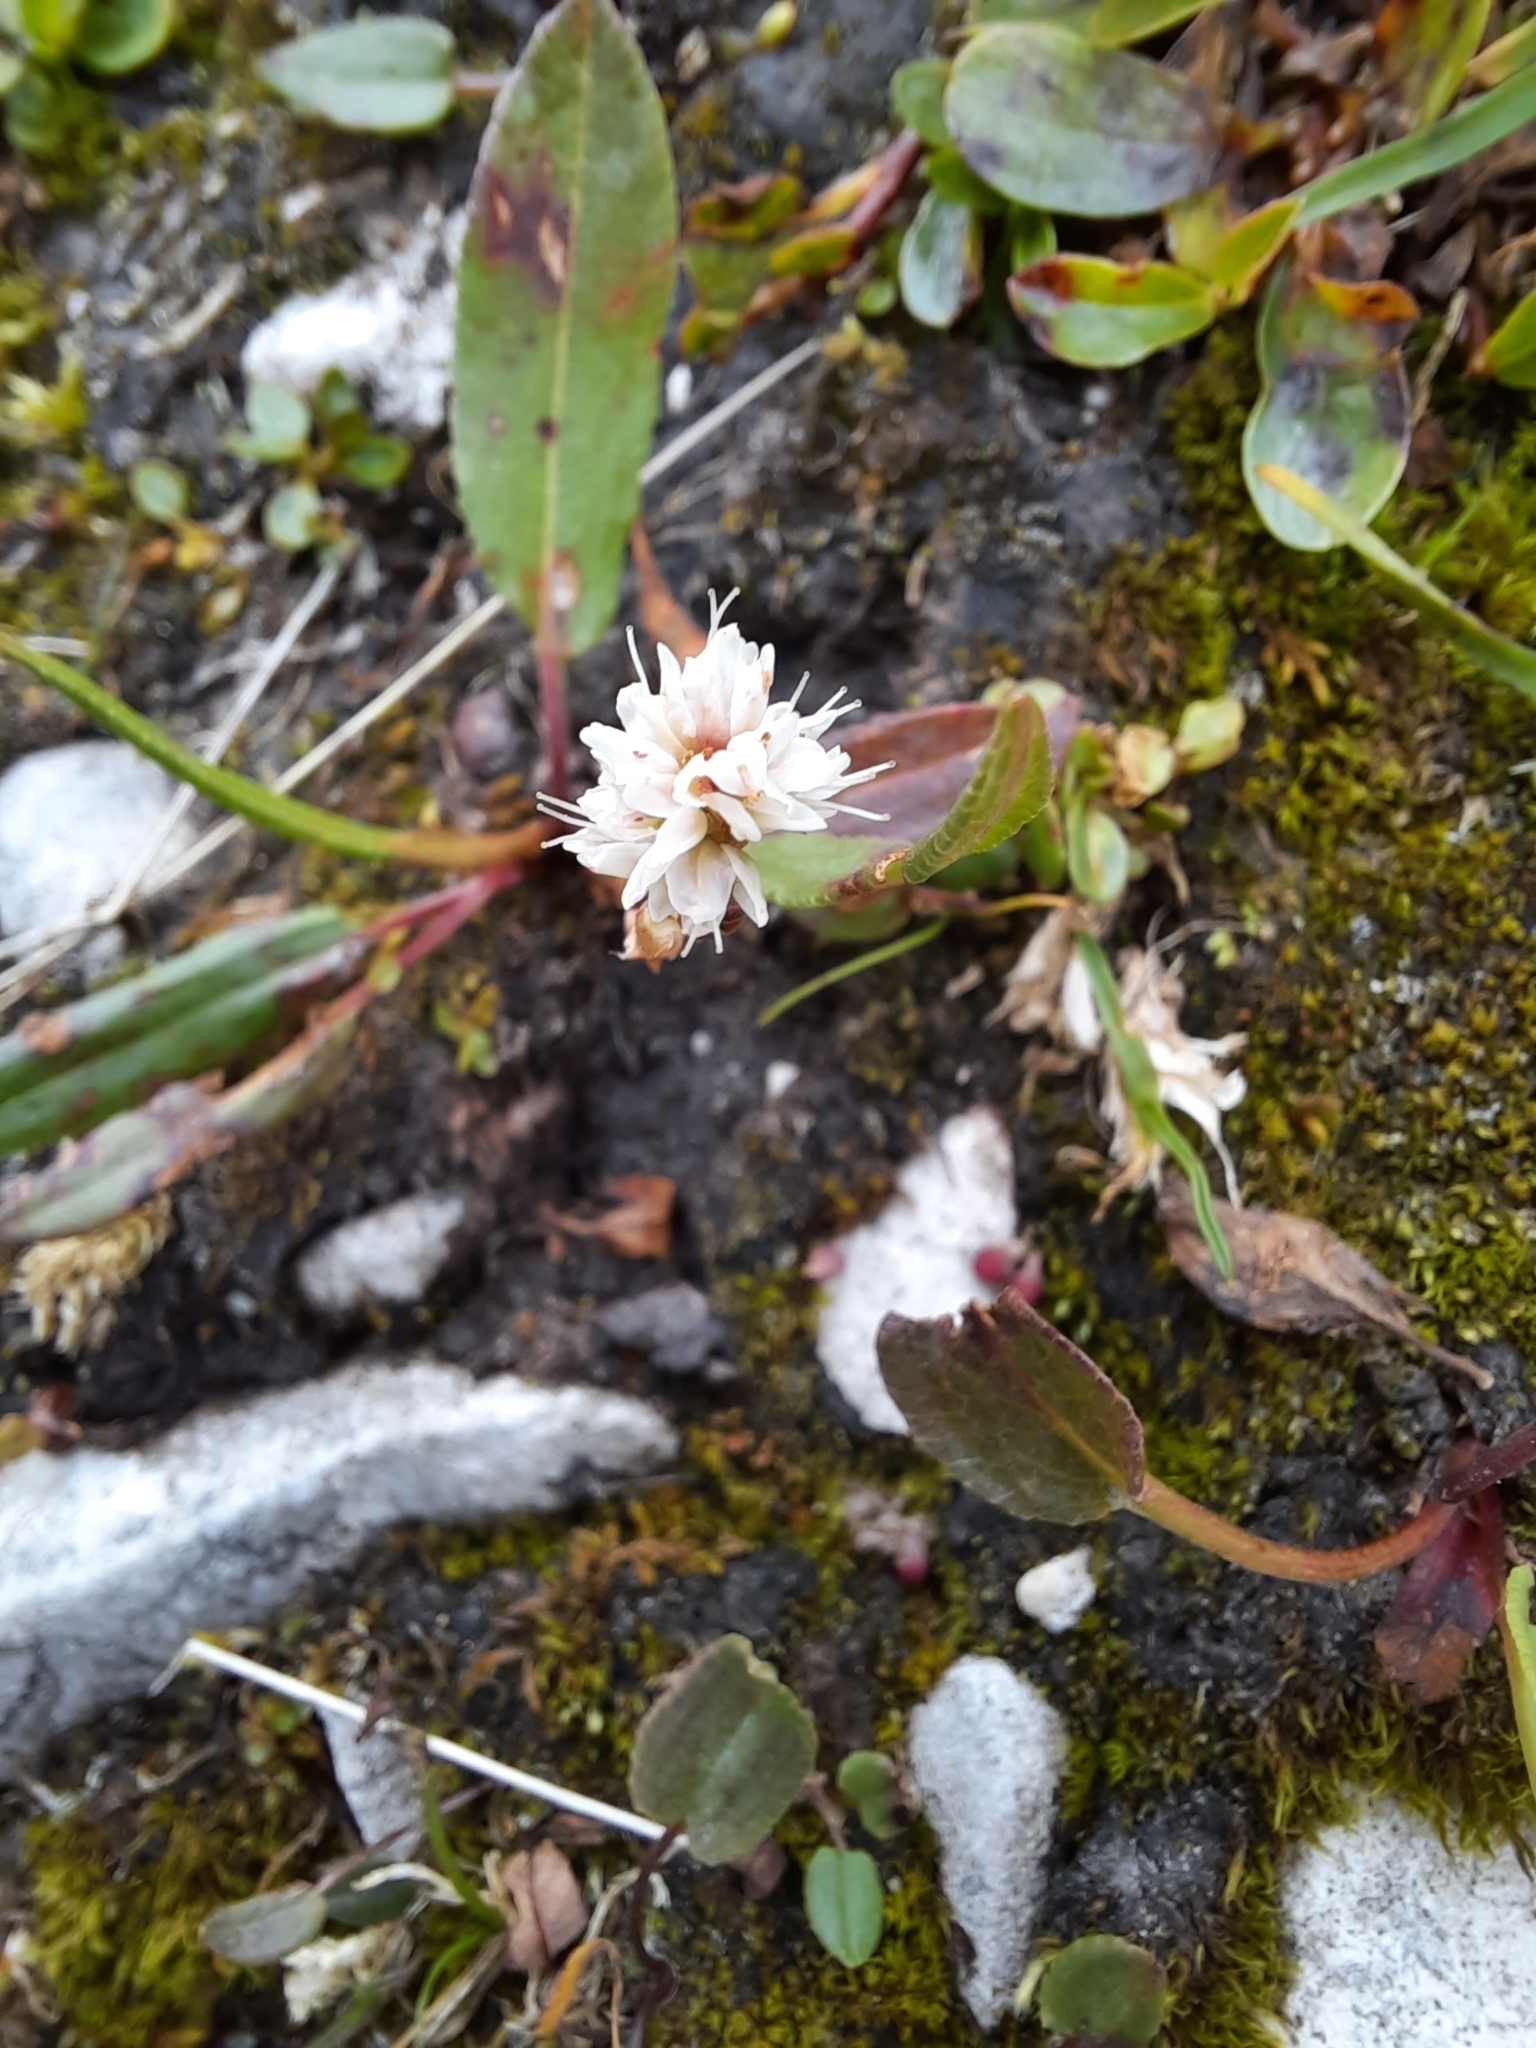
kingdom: Plantae
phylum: Tracheophyta
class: Magnoliopsida
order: Caryophyllales
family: Polygonaceae
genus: Bistorta
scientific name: Bistorta vivipara
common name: Alpine bistort
